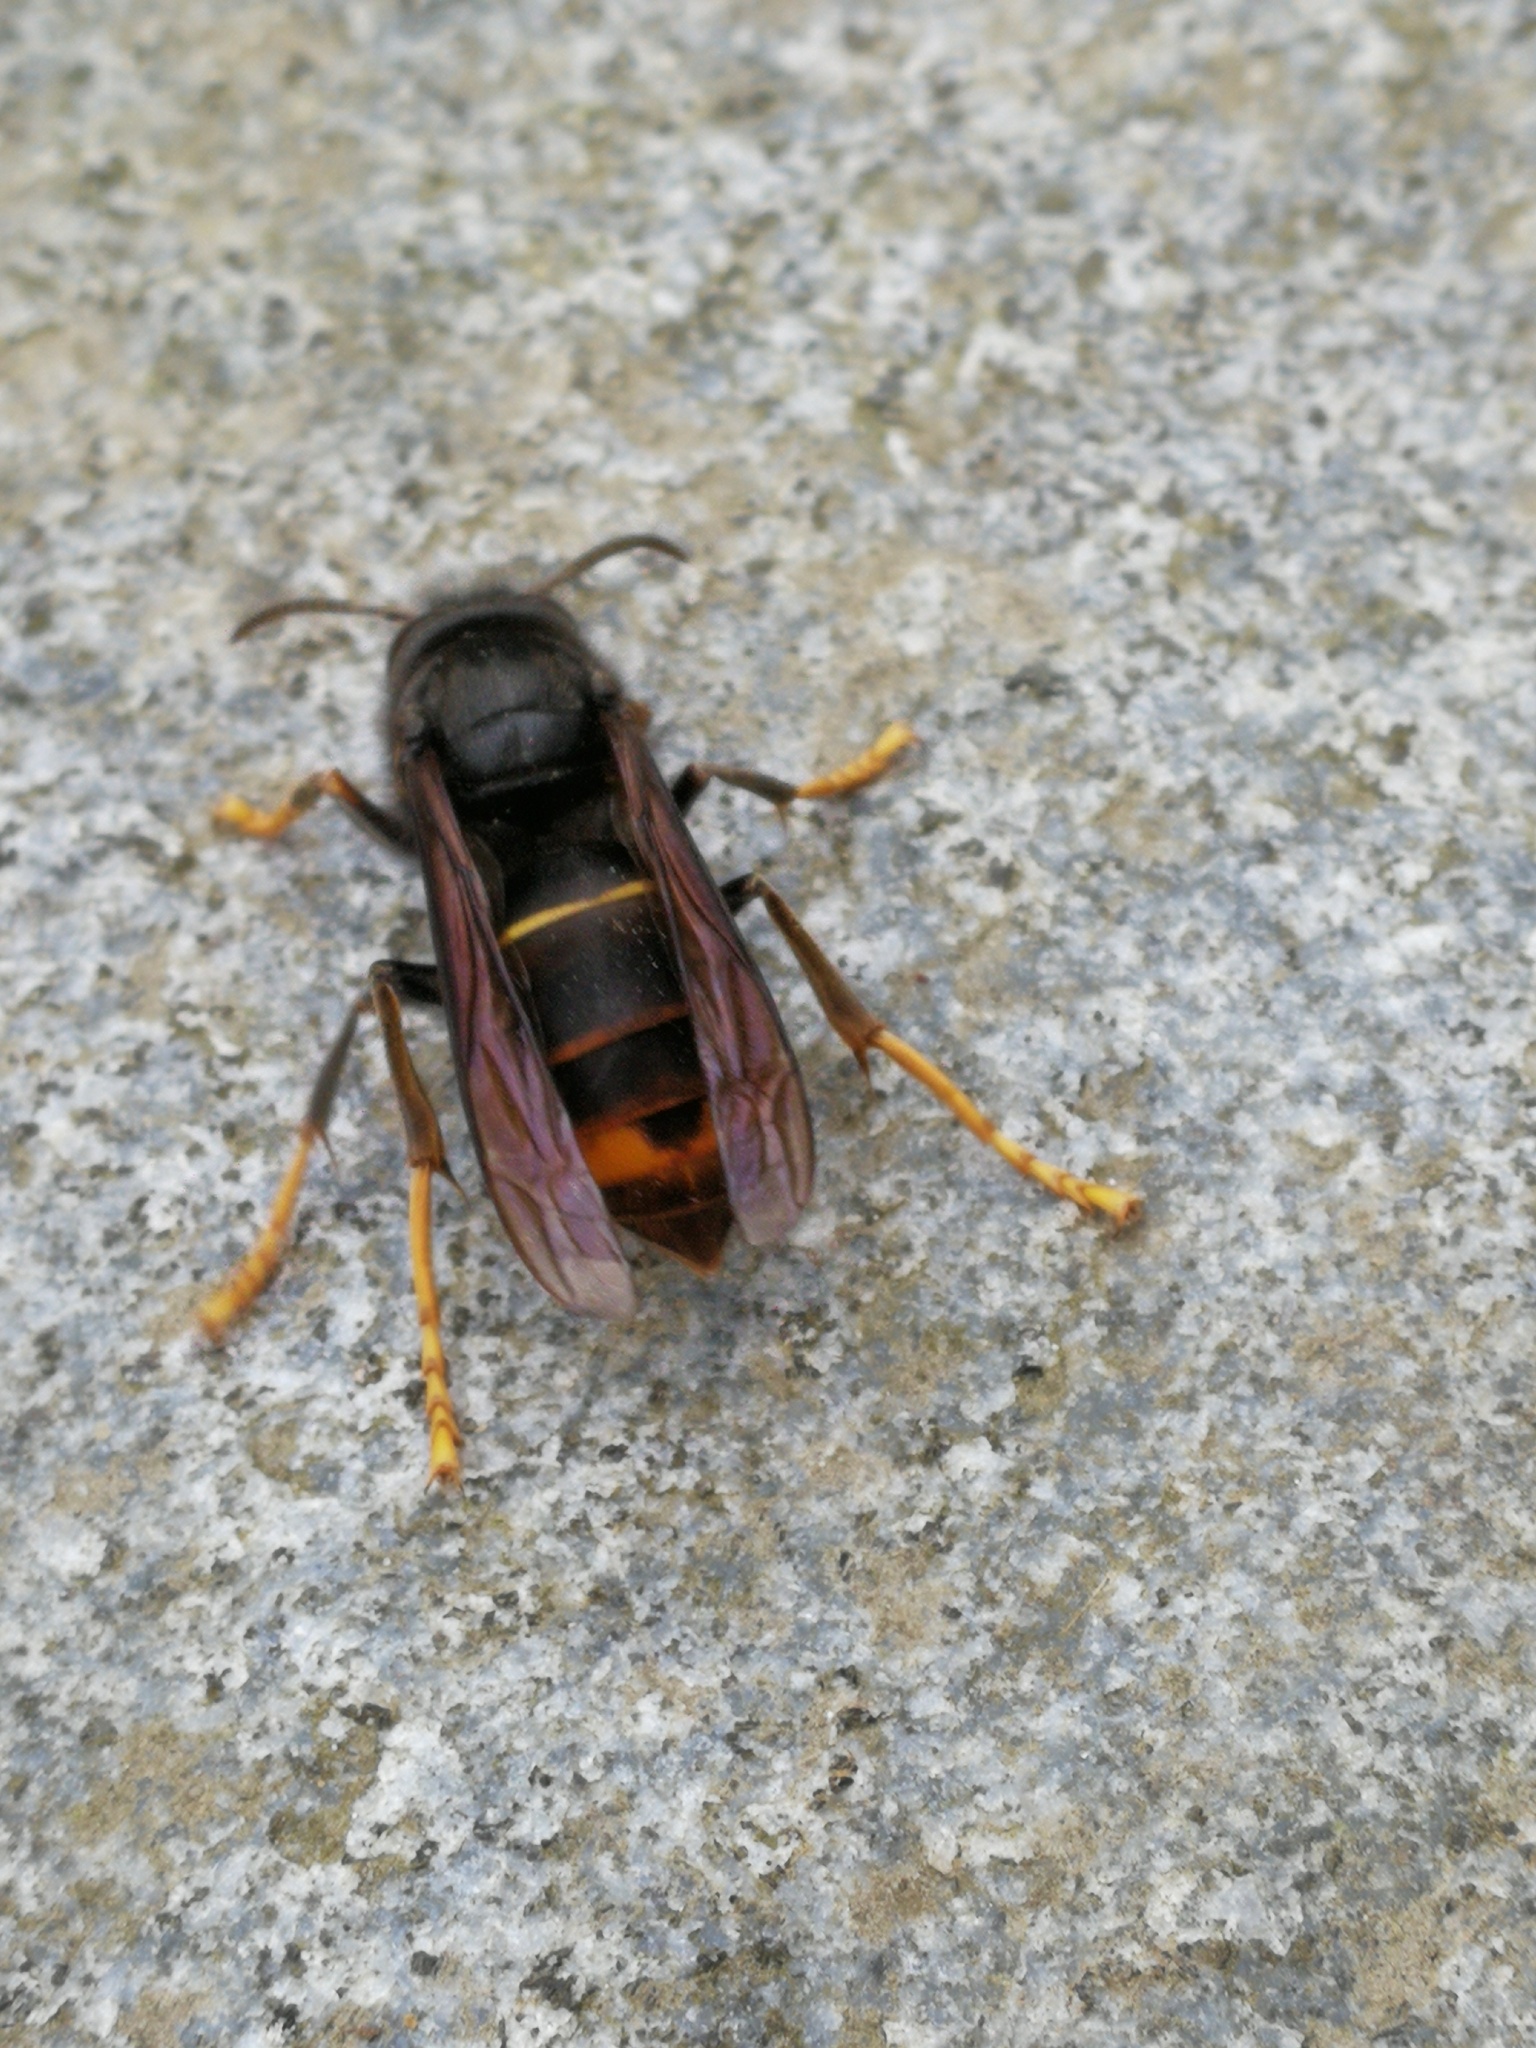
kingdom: Animalia
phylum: Arthropoda
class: Insecta
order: Hymenoptera
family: Vespidae
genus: Vespa
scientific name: Vespa velutina
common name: Asian hornet
